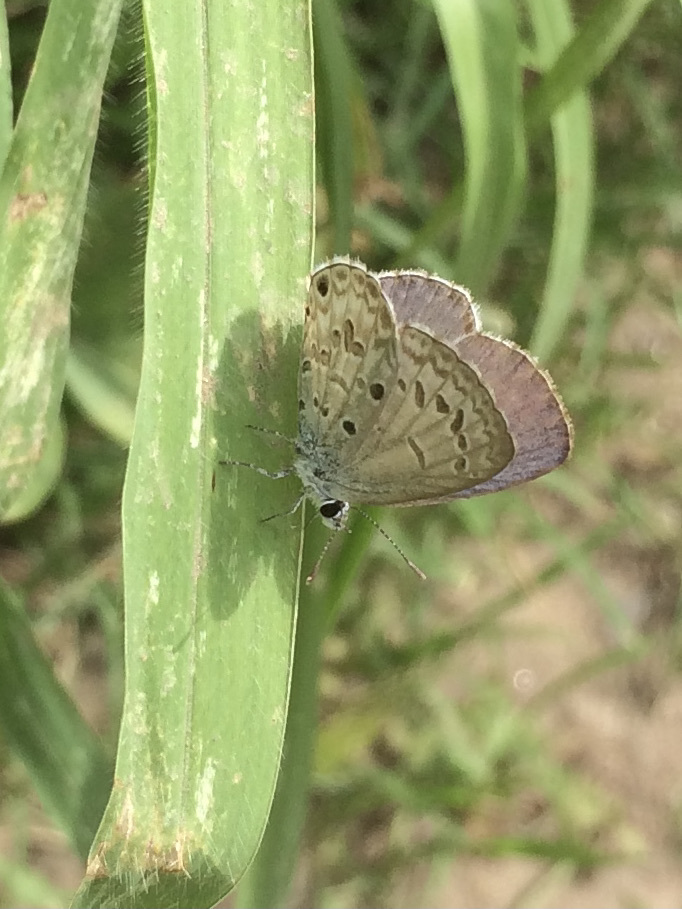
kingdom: Animalia
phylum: Arthropoda
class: Insecta
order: Lepidoptera
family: Lycaenidae
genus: Chilades
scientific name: Chilades laius
